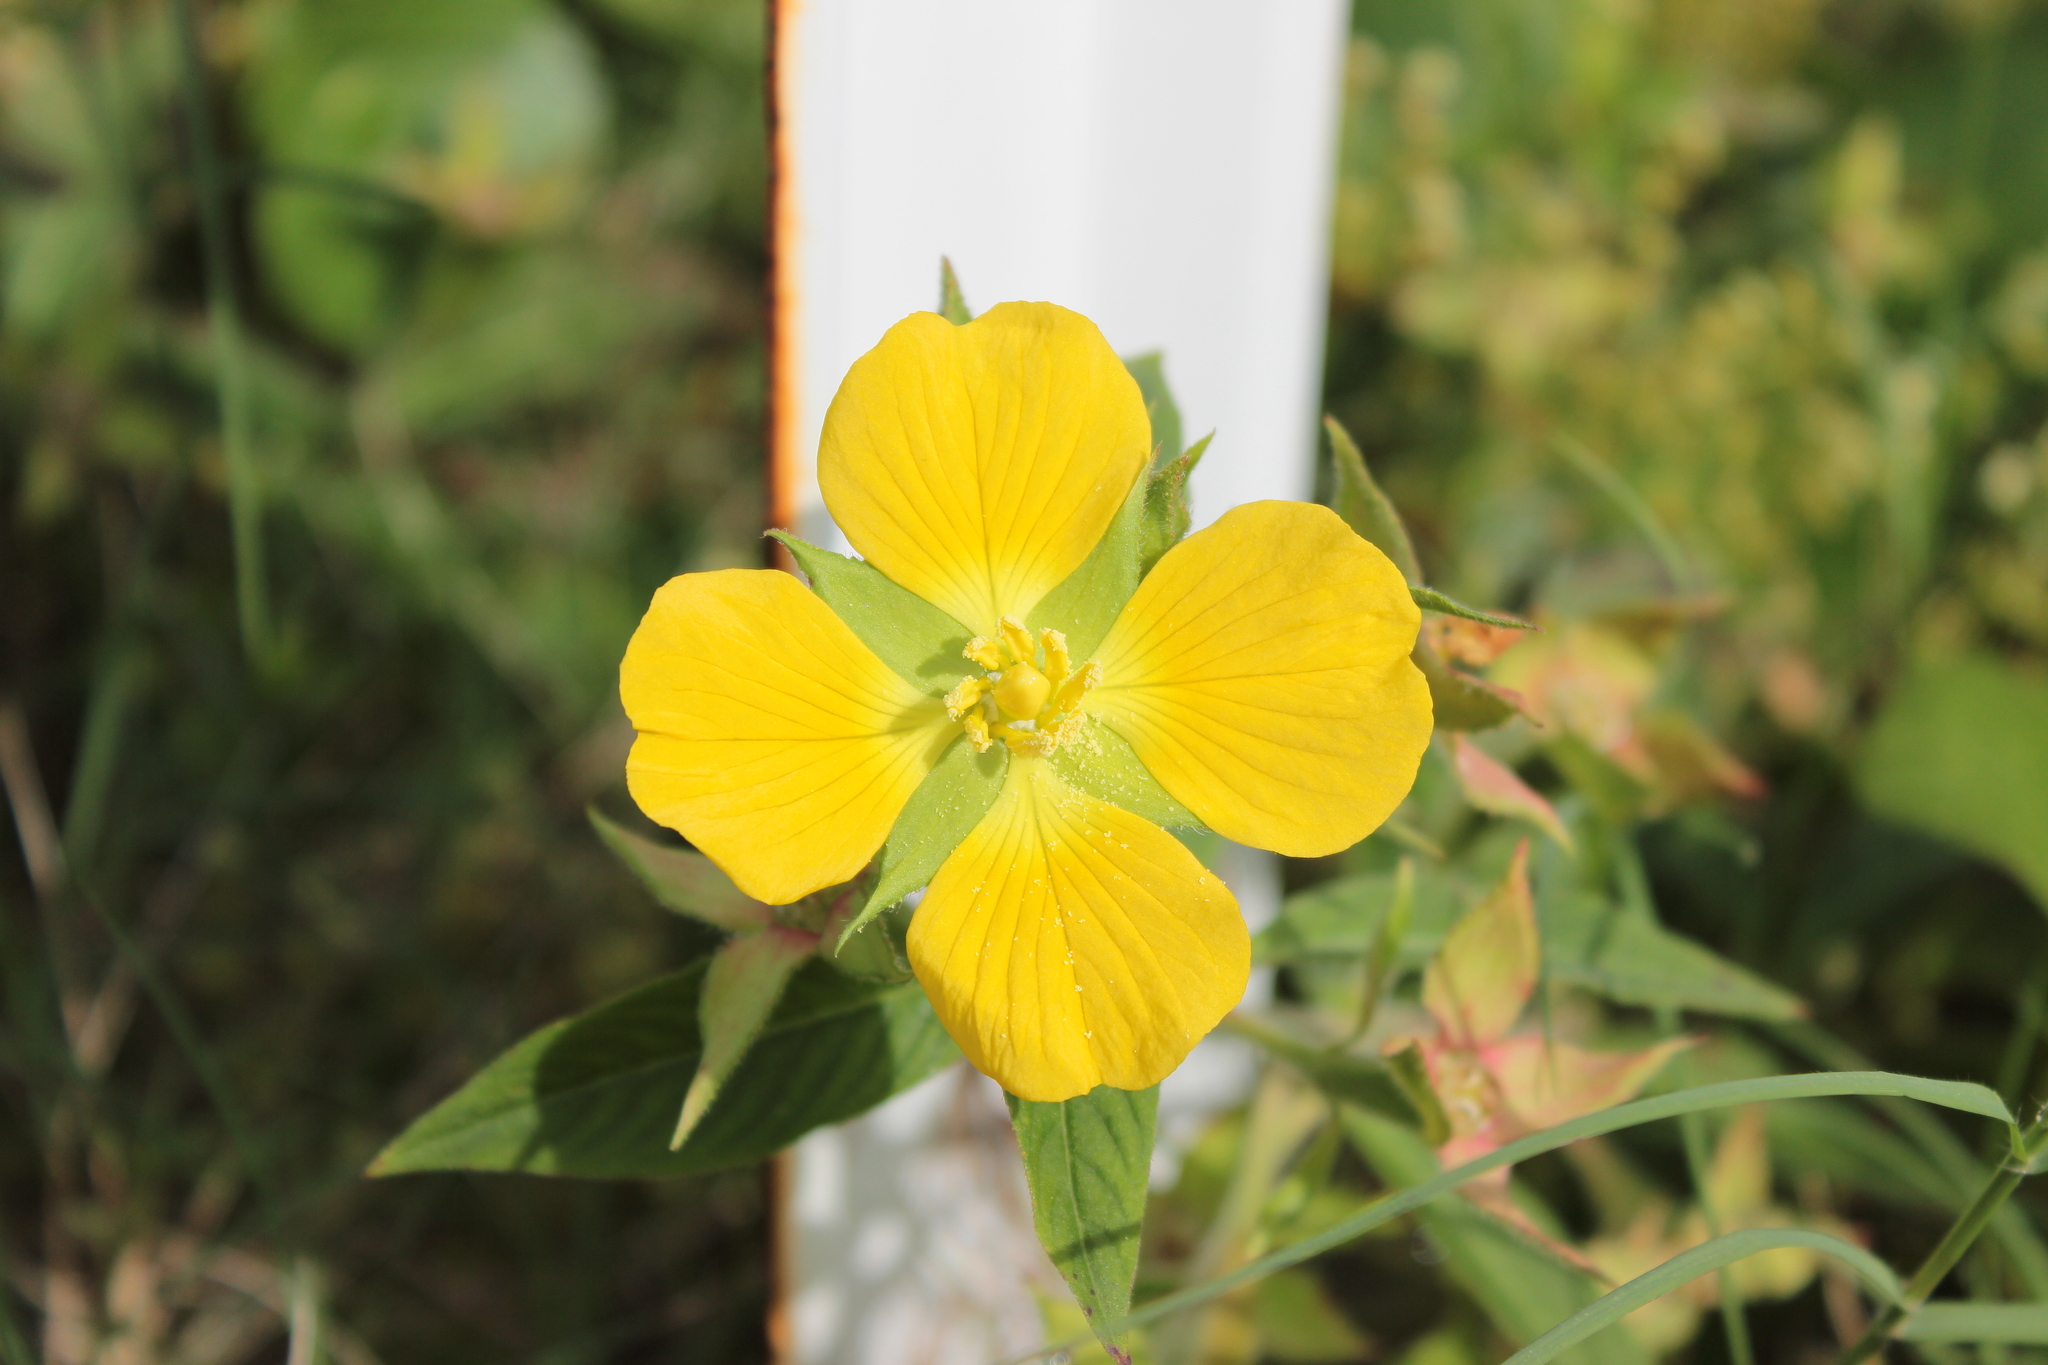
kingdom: Plantae
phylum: Tracheophyta
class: Magnoliopsida
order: Myrtales
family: Onagraceae
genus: Ludwigia
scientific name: Ludwigia peruviana
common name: Peruvian primrose-willow
